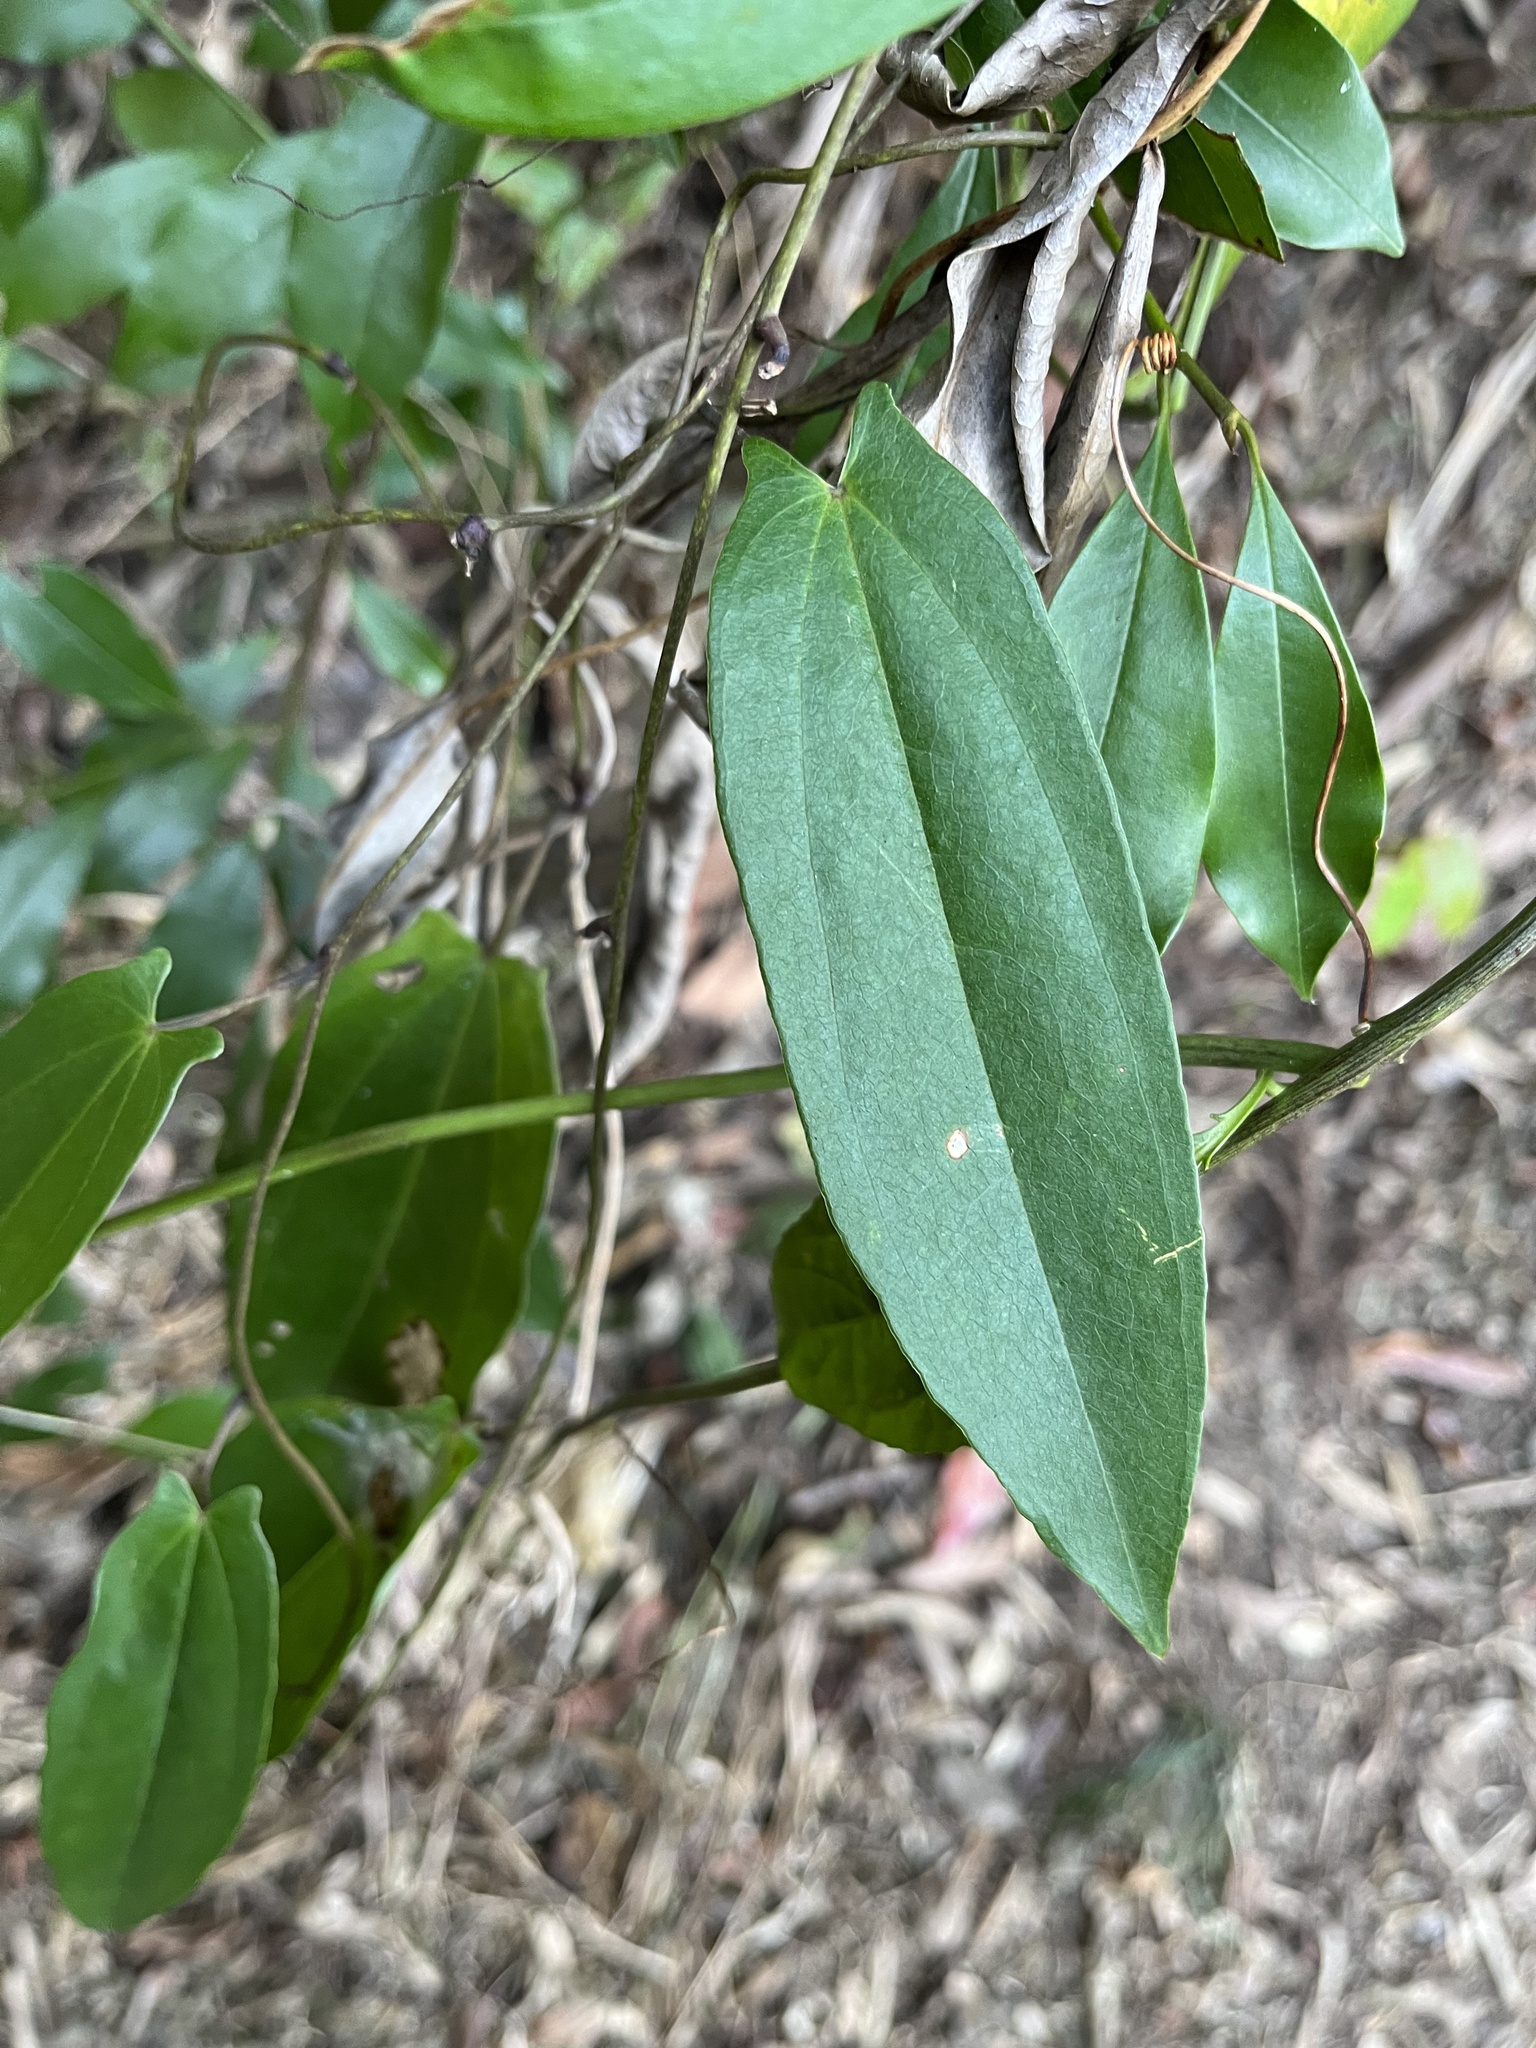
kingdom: Plantae
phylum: Tracheophyta
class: Liliopsida
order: Dioscoreales
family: Dioscoreaceae
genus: Dioscorea
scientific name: Dioscorea cirrhosa
